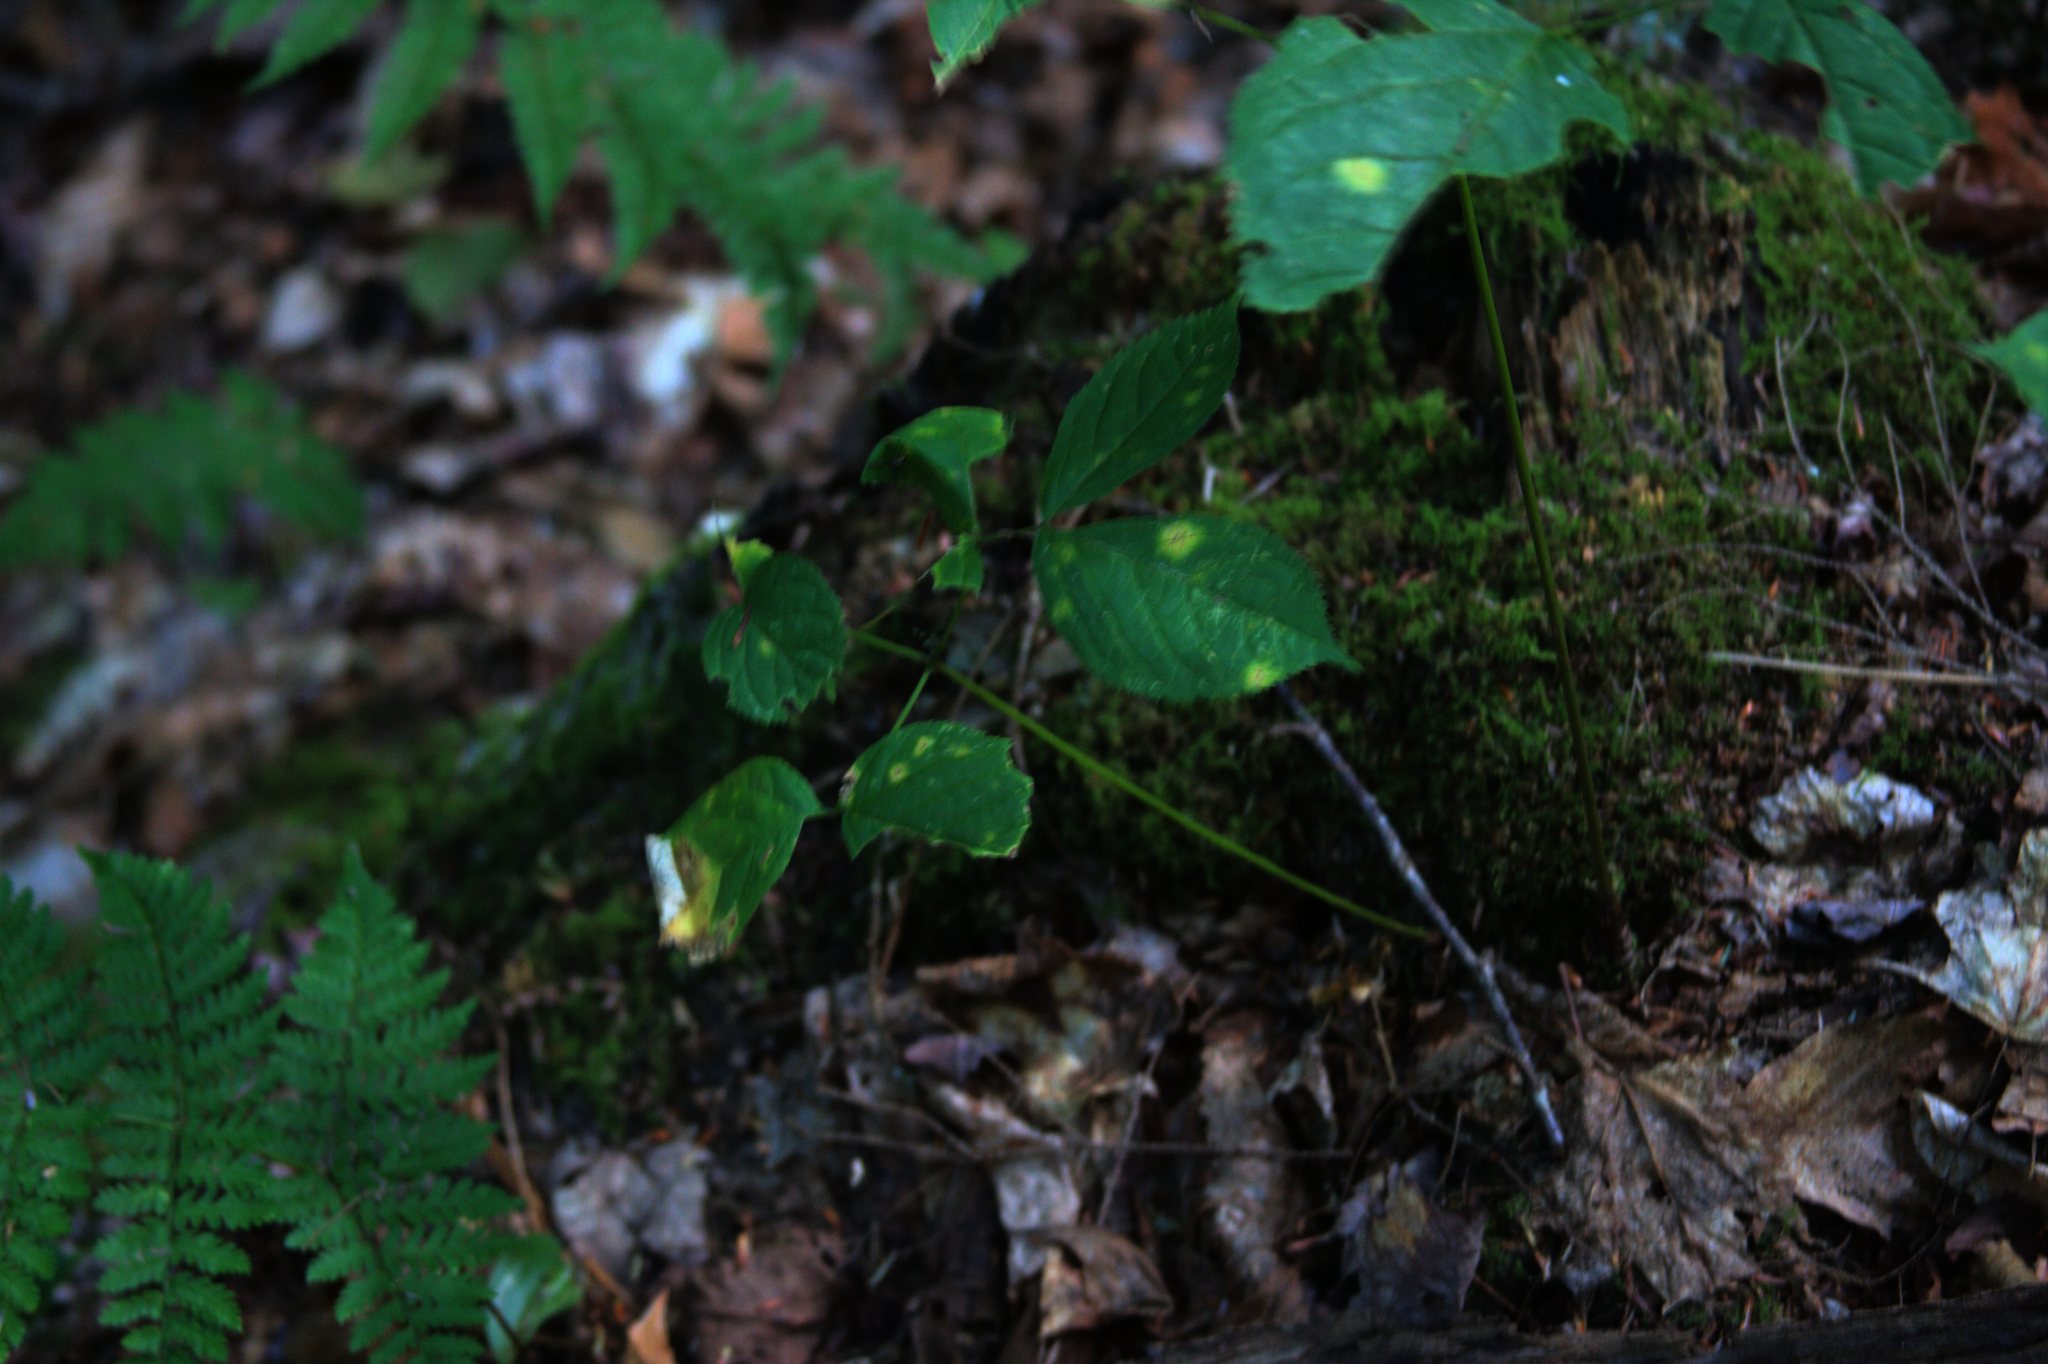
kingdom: Plantae
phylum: Tracheophyta
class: Magnoliopsida
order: Apiales
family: Araliaceae
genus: Aralia
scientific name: Aralia nudicaulis
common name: Wild sarsaparilla
